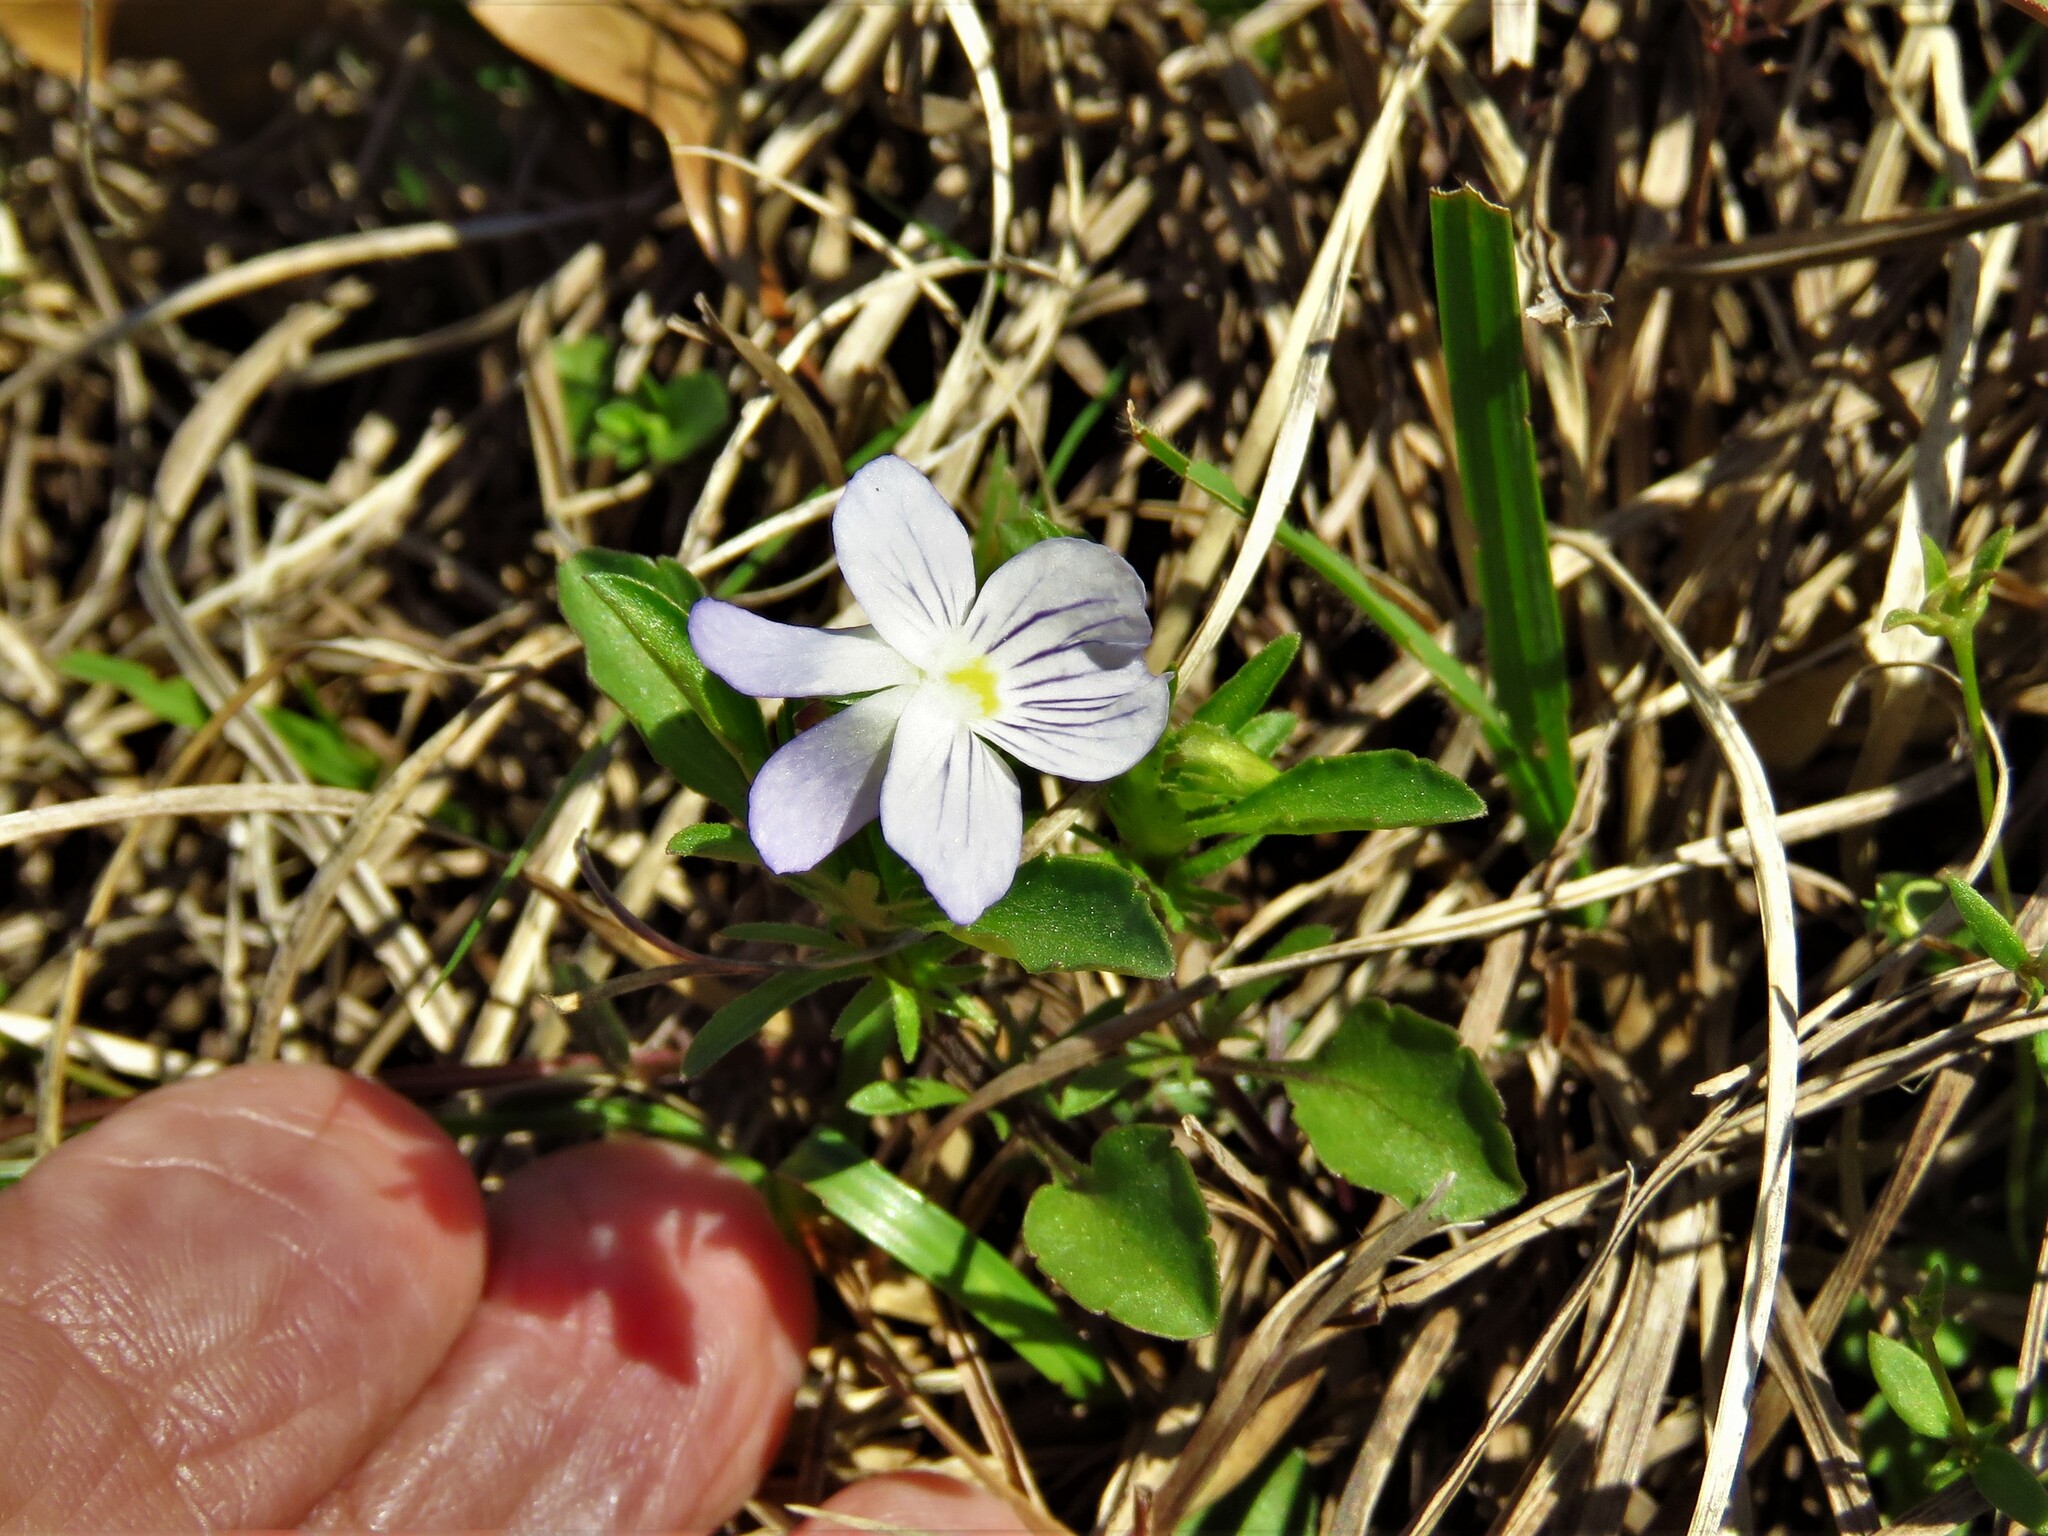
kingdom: Plantae
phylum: Tracheophyta
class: Magnoliopsida
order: Malpighiales
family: Violaceae
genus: Viola
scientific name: Viola rafinesquei
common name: American field pansy
